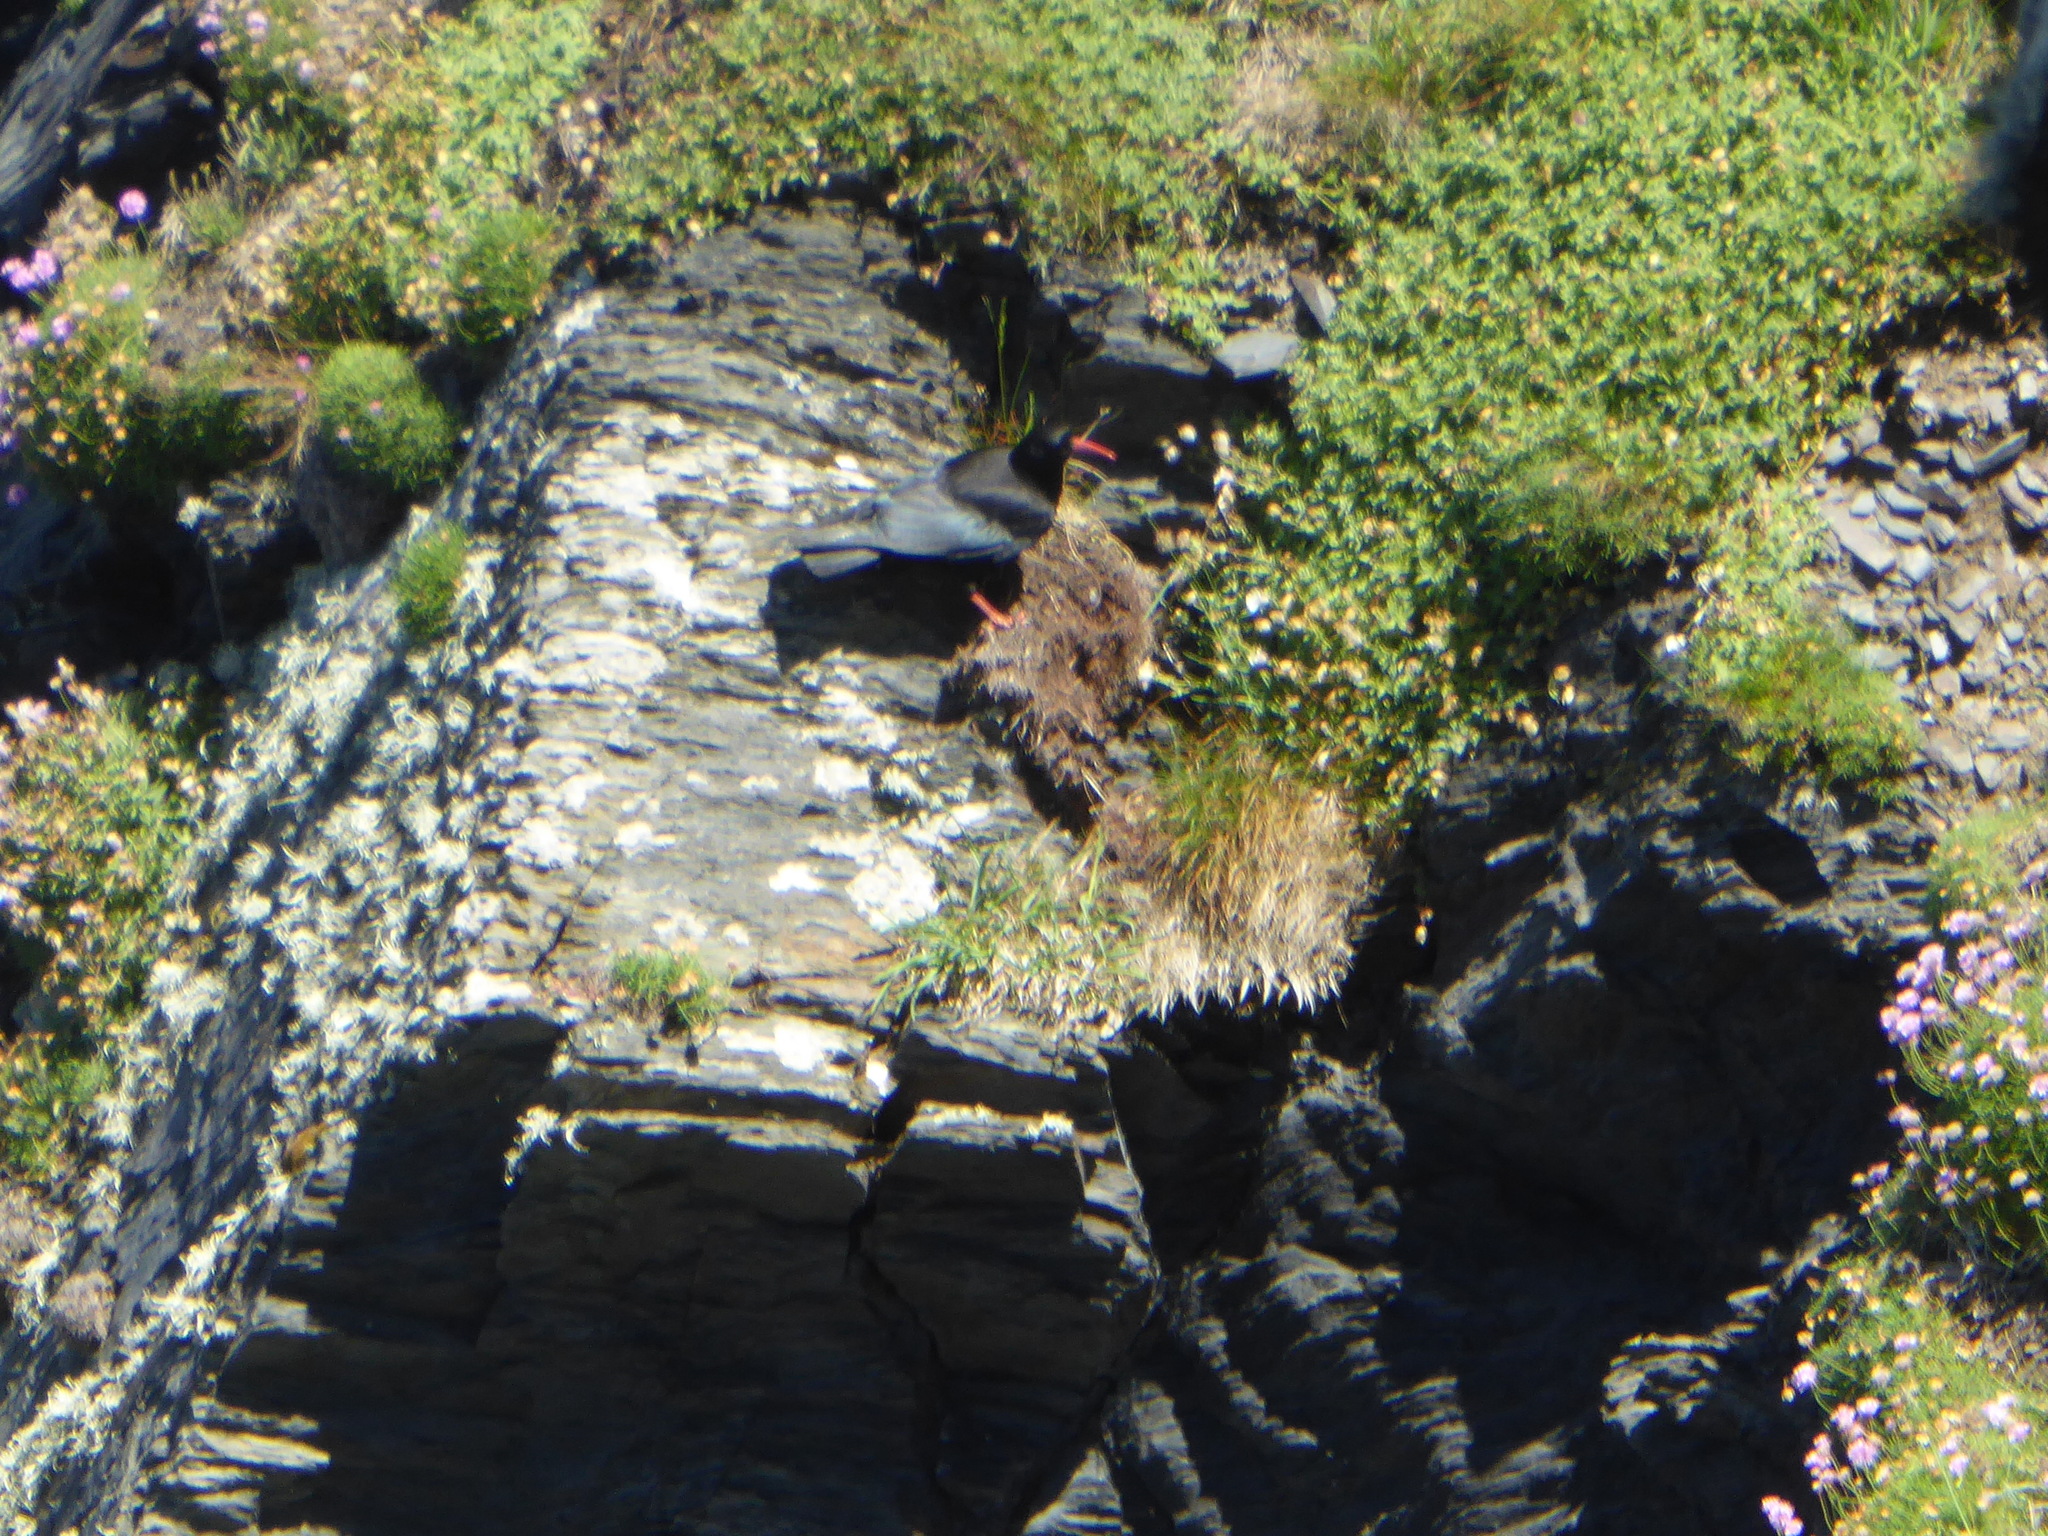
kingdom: Animalia
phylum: Chordata
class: Aves
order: Passeriformes
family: Corvidae
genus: Pyrrhocorax
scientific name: Pyrrhocorax pyrrhocorax
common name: Red-billed chough
